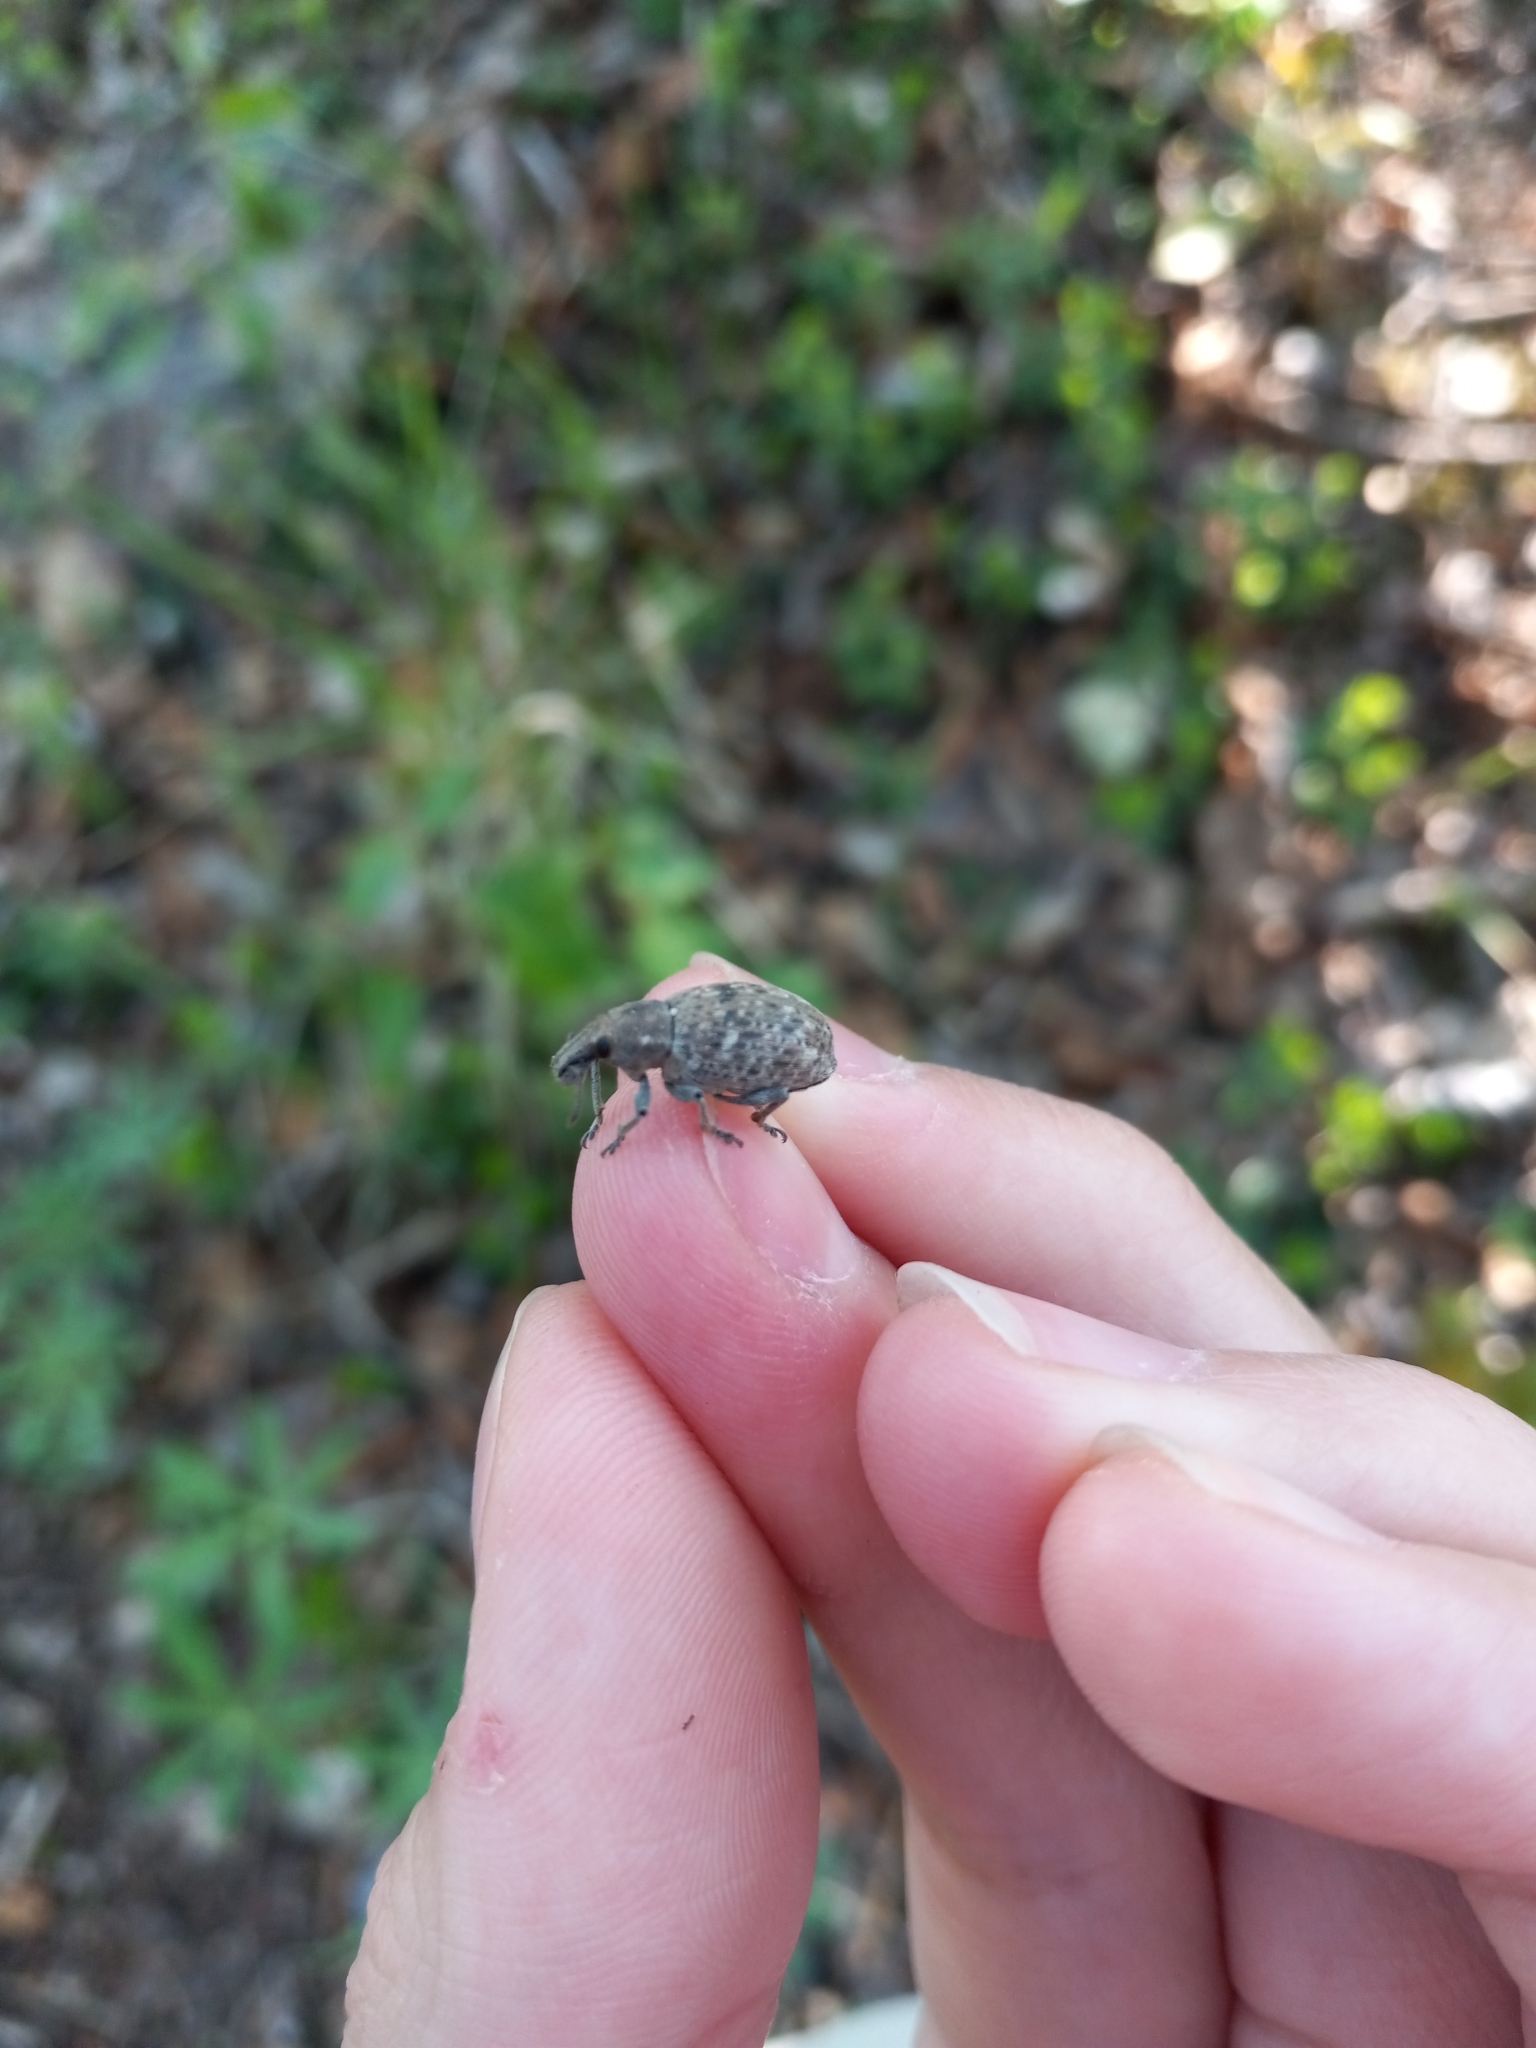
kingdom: Animalia
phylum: Arthropoda
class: Insecta
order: Coleoptera
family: Curculionidae
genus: Trichalophus
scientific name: Trichalophus alternatus
